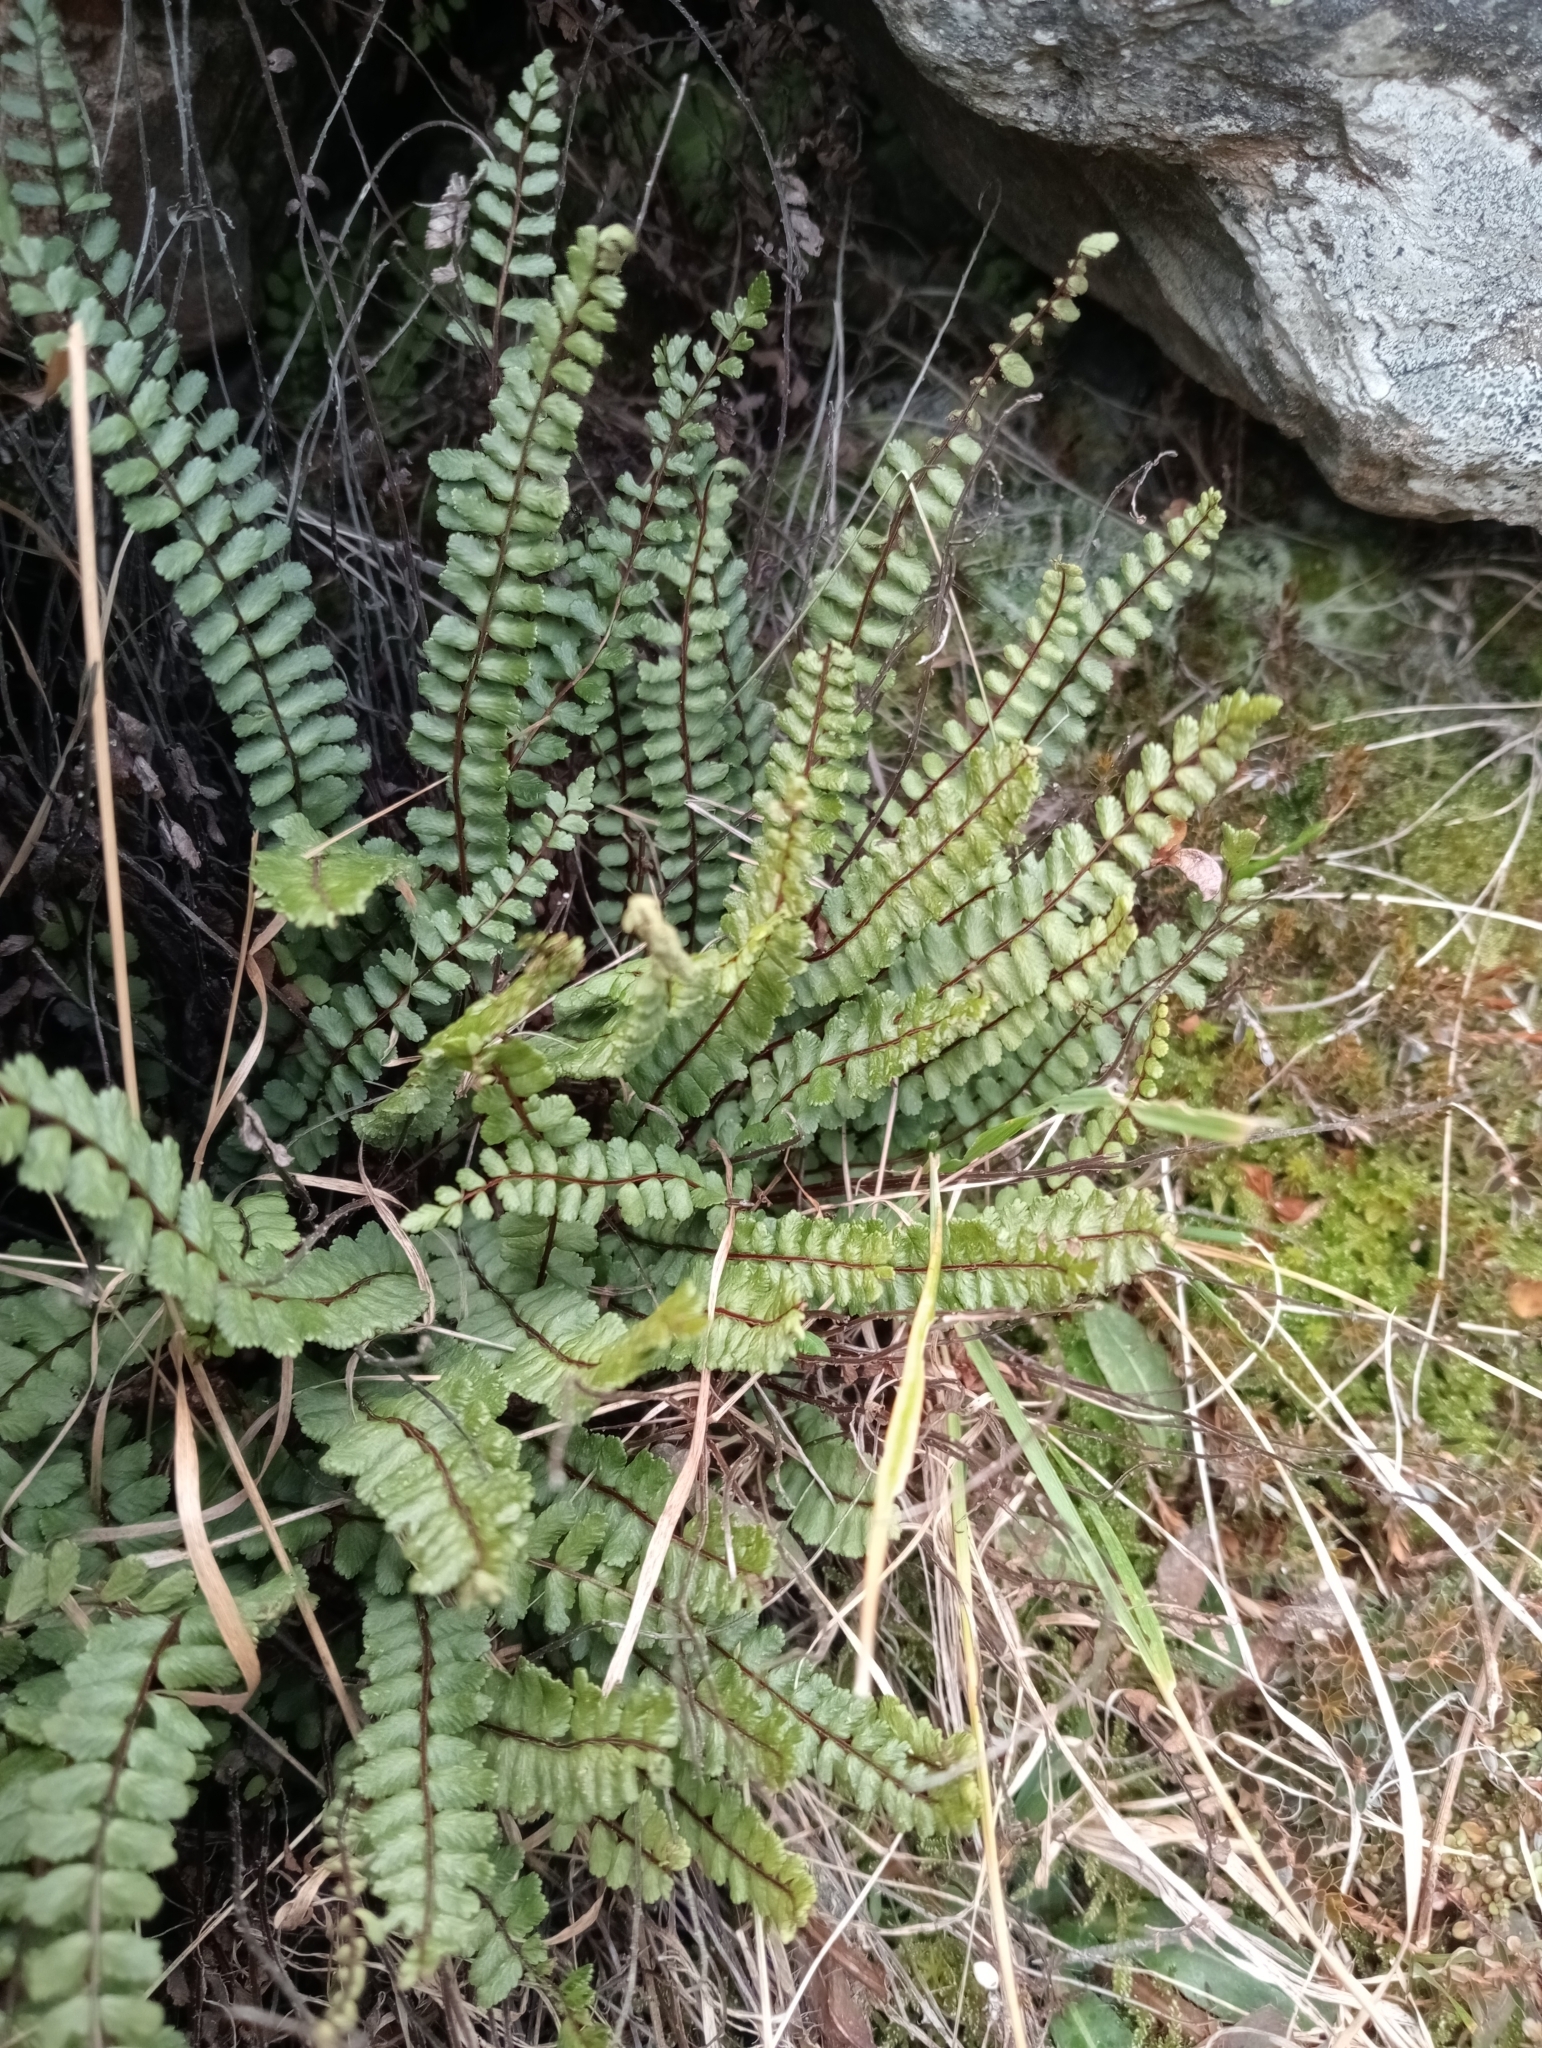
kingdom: Plantae
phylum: Tracheophyta
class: Polypodiopsida
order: Polypodiales
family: Aspleniaceae
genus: Asplenium
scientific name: Asplenium trichomanes
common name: Maidenhair spleenwort
